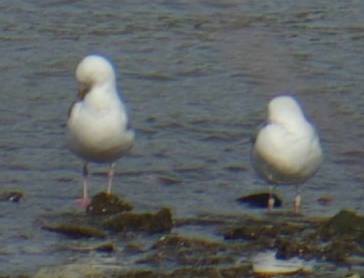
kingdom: Animalia
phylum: Chordata
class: Aves
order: Charadriiformes
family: Laridae
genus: Larus
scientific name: Larus argentatus
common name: Herring gull
